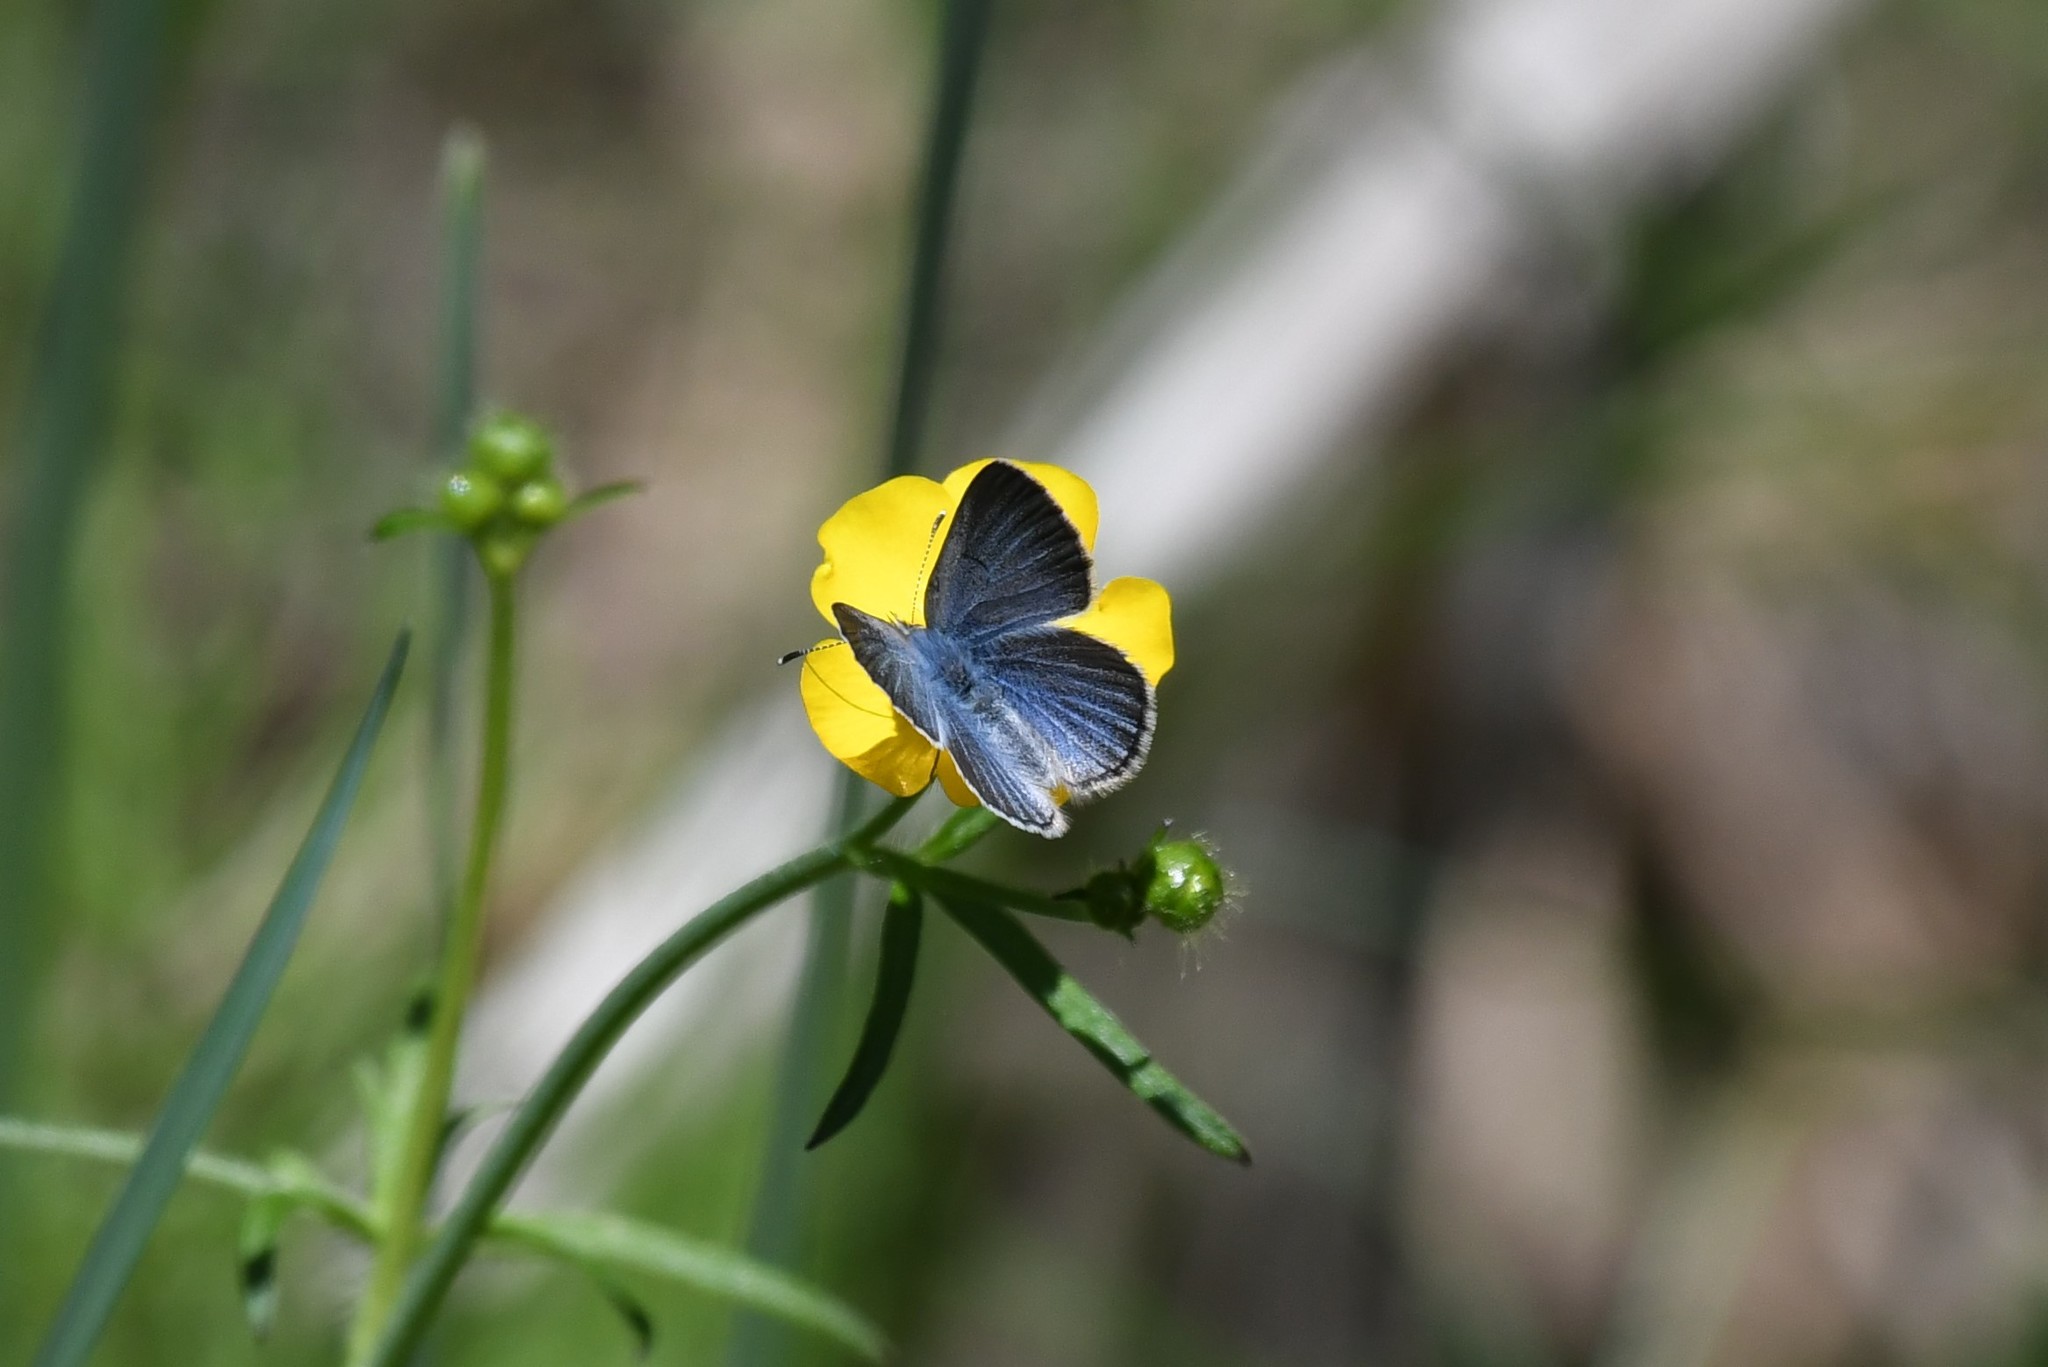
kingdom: Animalia
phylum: Arthropoda
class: Insecta
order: Lepidoptera
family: Lycaenidae
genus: Glaucopsyche
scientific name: Glaucopsyche lygdamus
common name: Silvery blue
